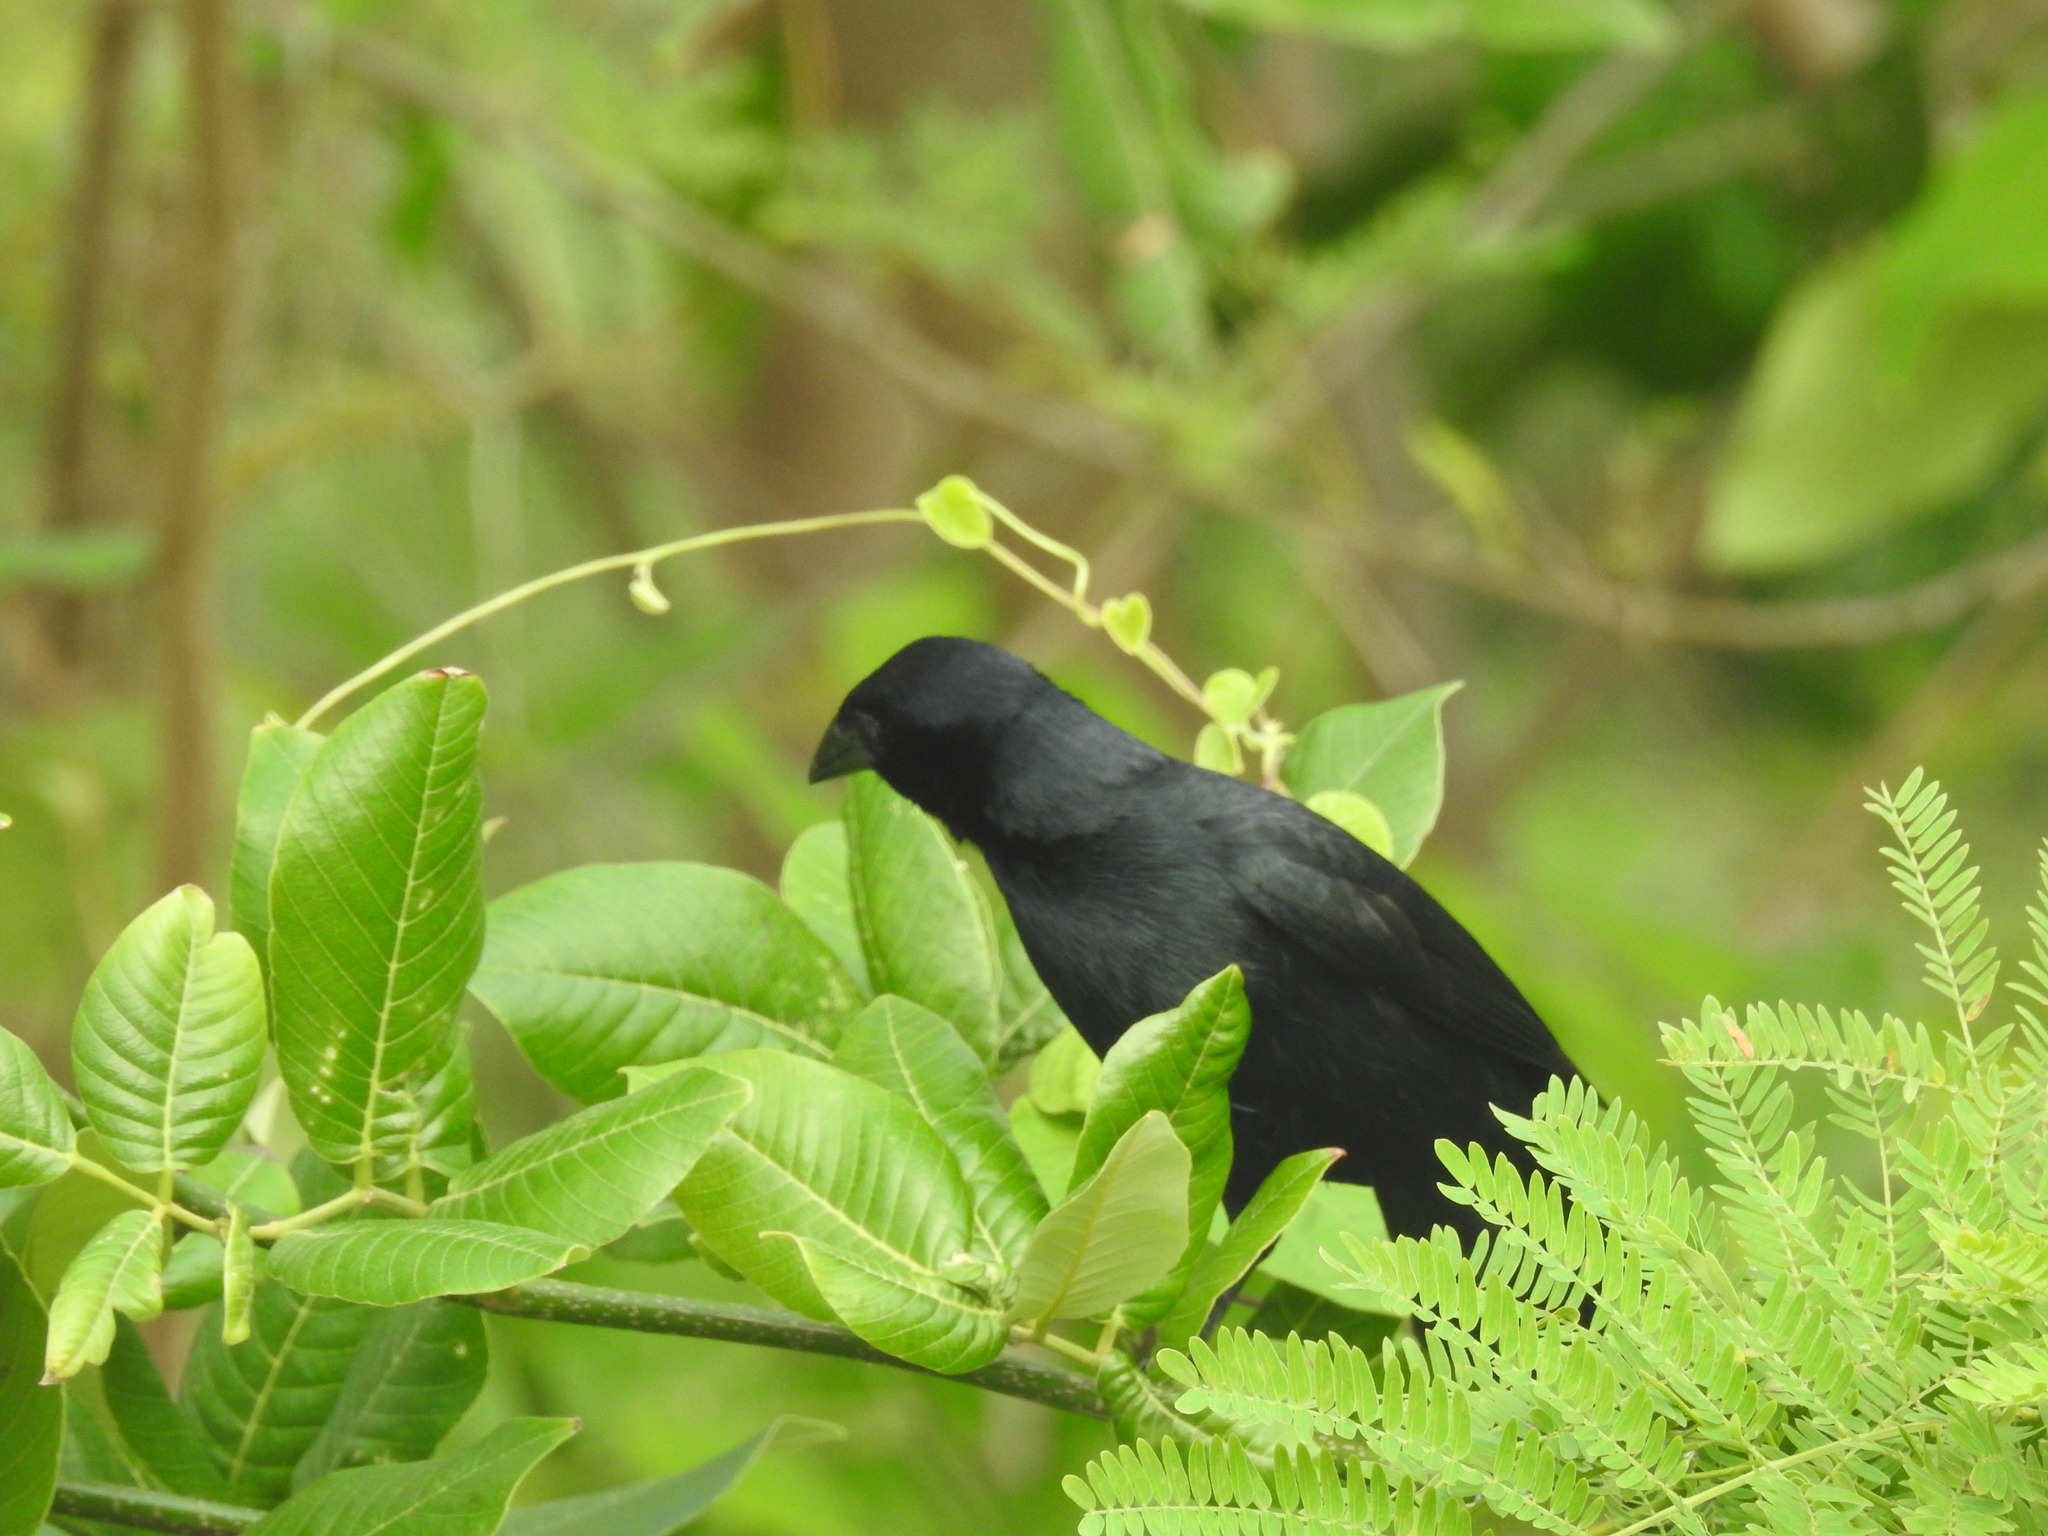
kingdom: Animalia
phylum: Chordata
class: Aves
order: Passeriformes
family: Icteridae
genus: Dives
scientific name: Dives dives
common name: Melodious blackbird
